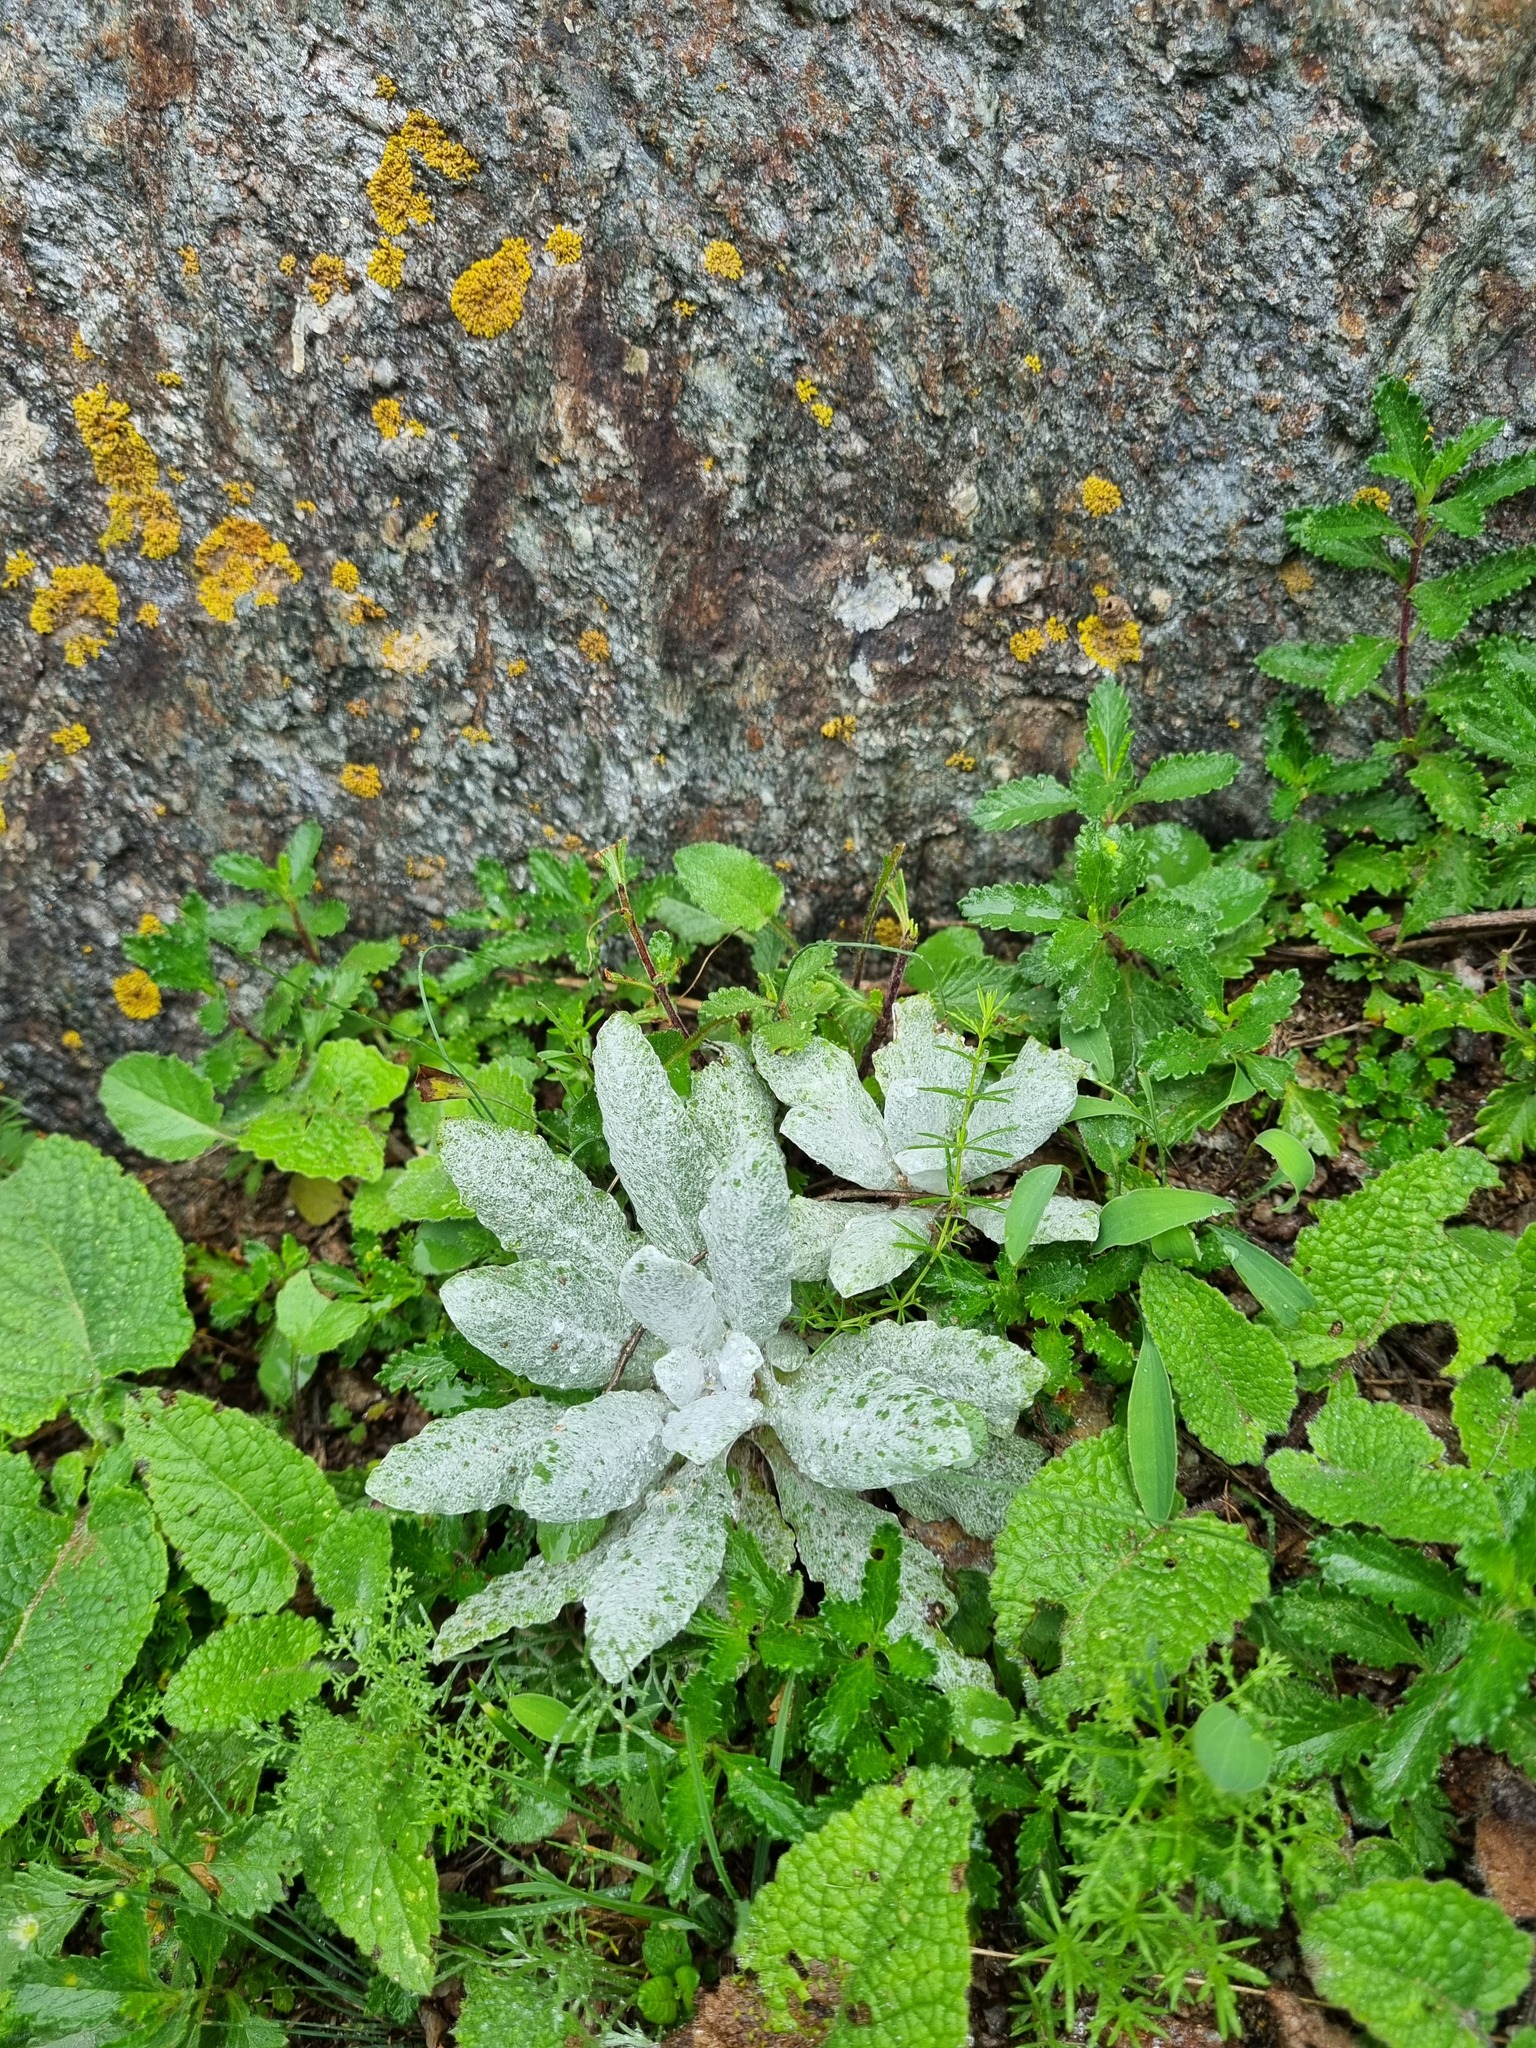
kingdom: Plantae
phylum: Tracheophyta
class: Magnoliopsida
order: Lamiales
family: Lamiaceae
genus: Salvia
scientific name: Salvia canescens
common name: Hoary salvia
